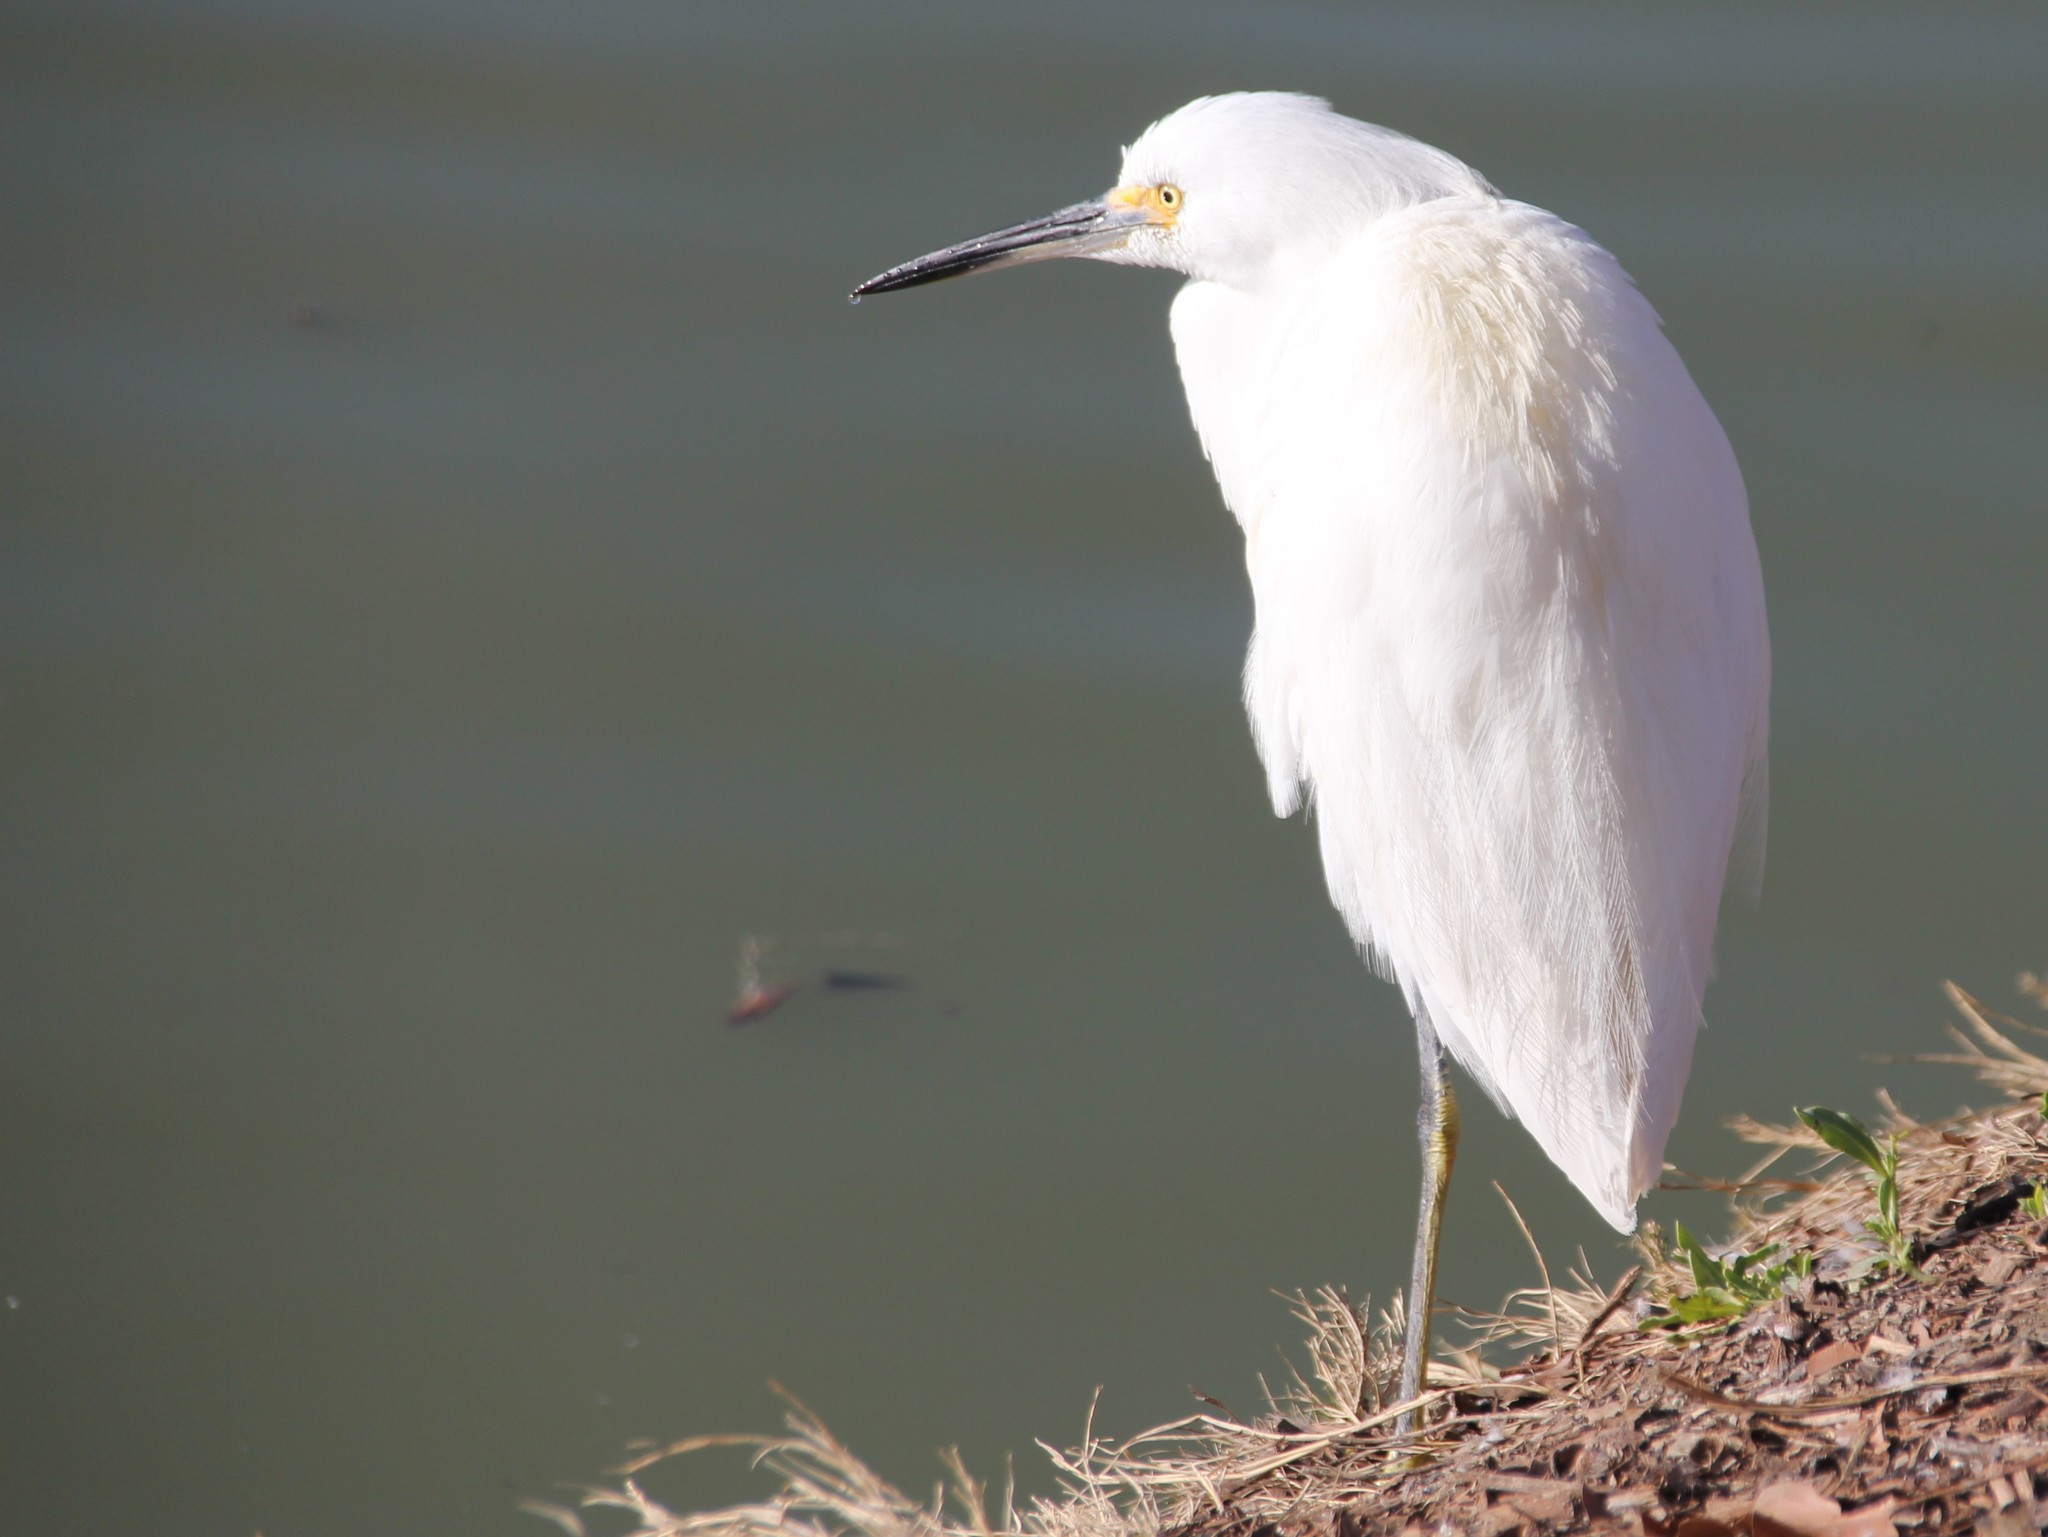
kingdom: Animalia
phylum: Chordata
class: Aves
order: Pelecaniformes
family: Ardeidae
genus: Egretta
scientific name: Egretta thula
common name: Snowy egret
